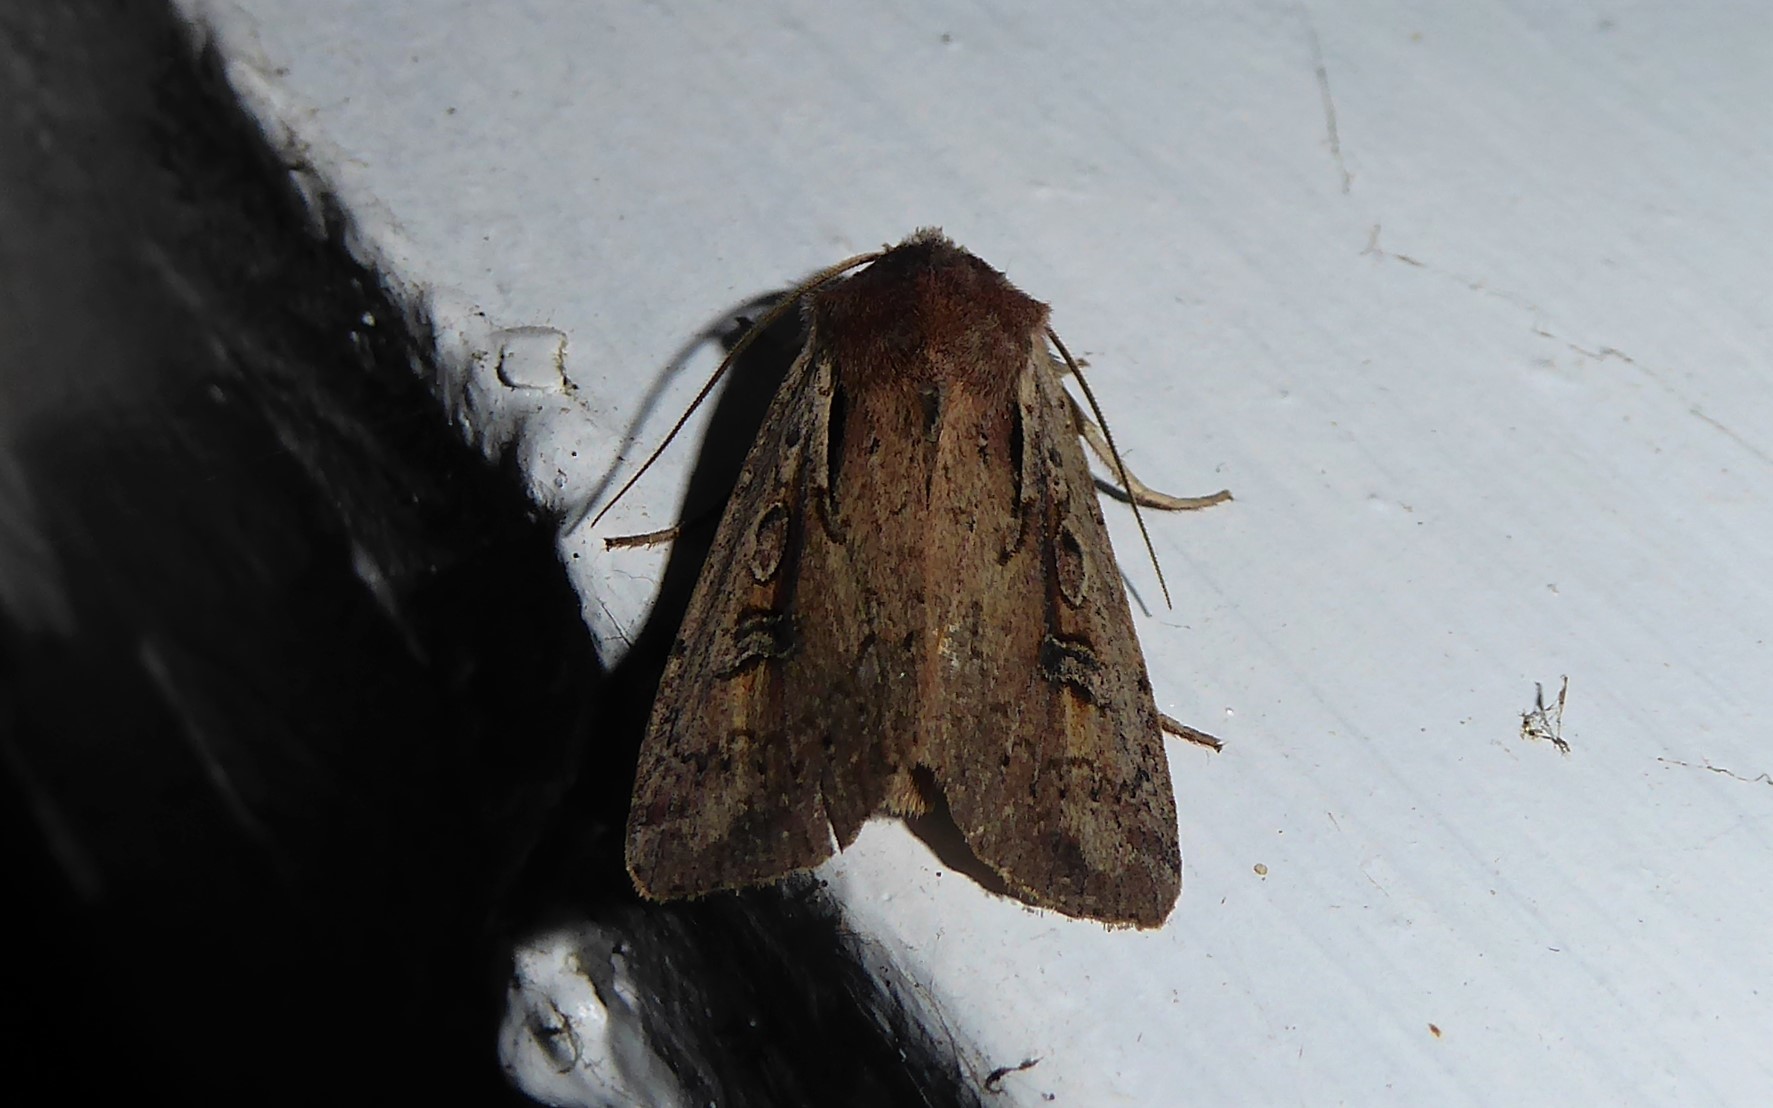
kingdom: Animalia
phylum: Arthropoda
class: Insecta
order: Lepidoptera
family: Noctuidae
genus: Ichneutica
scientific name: Ichneutica atristriga
